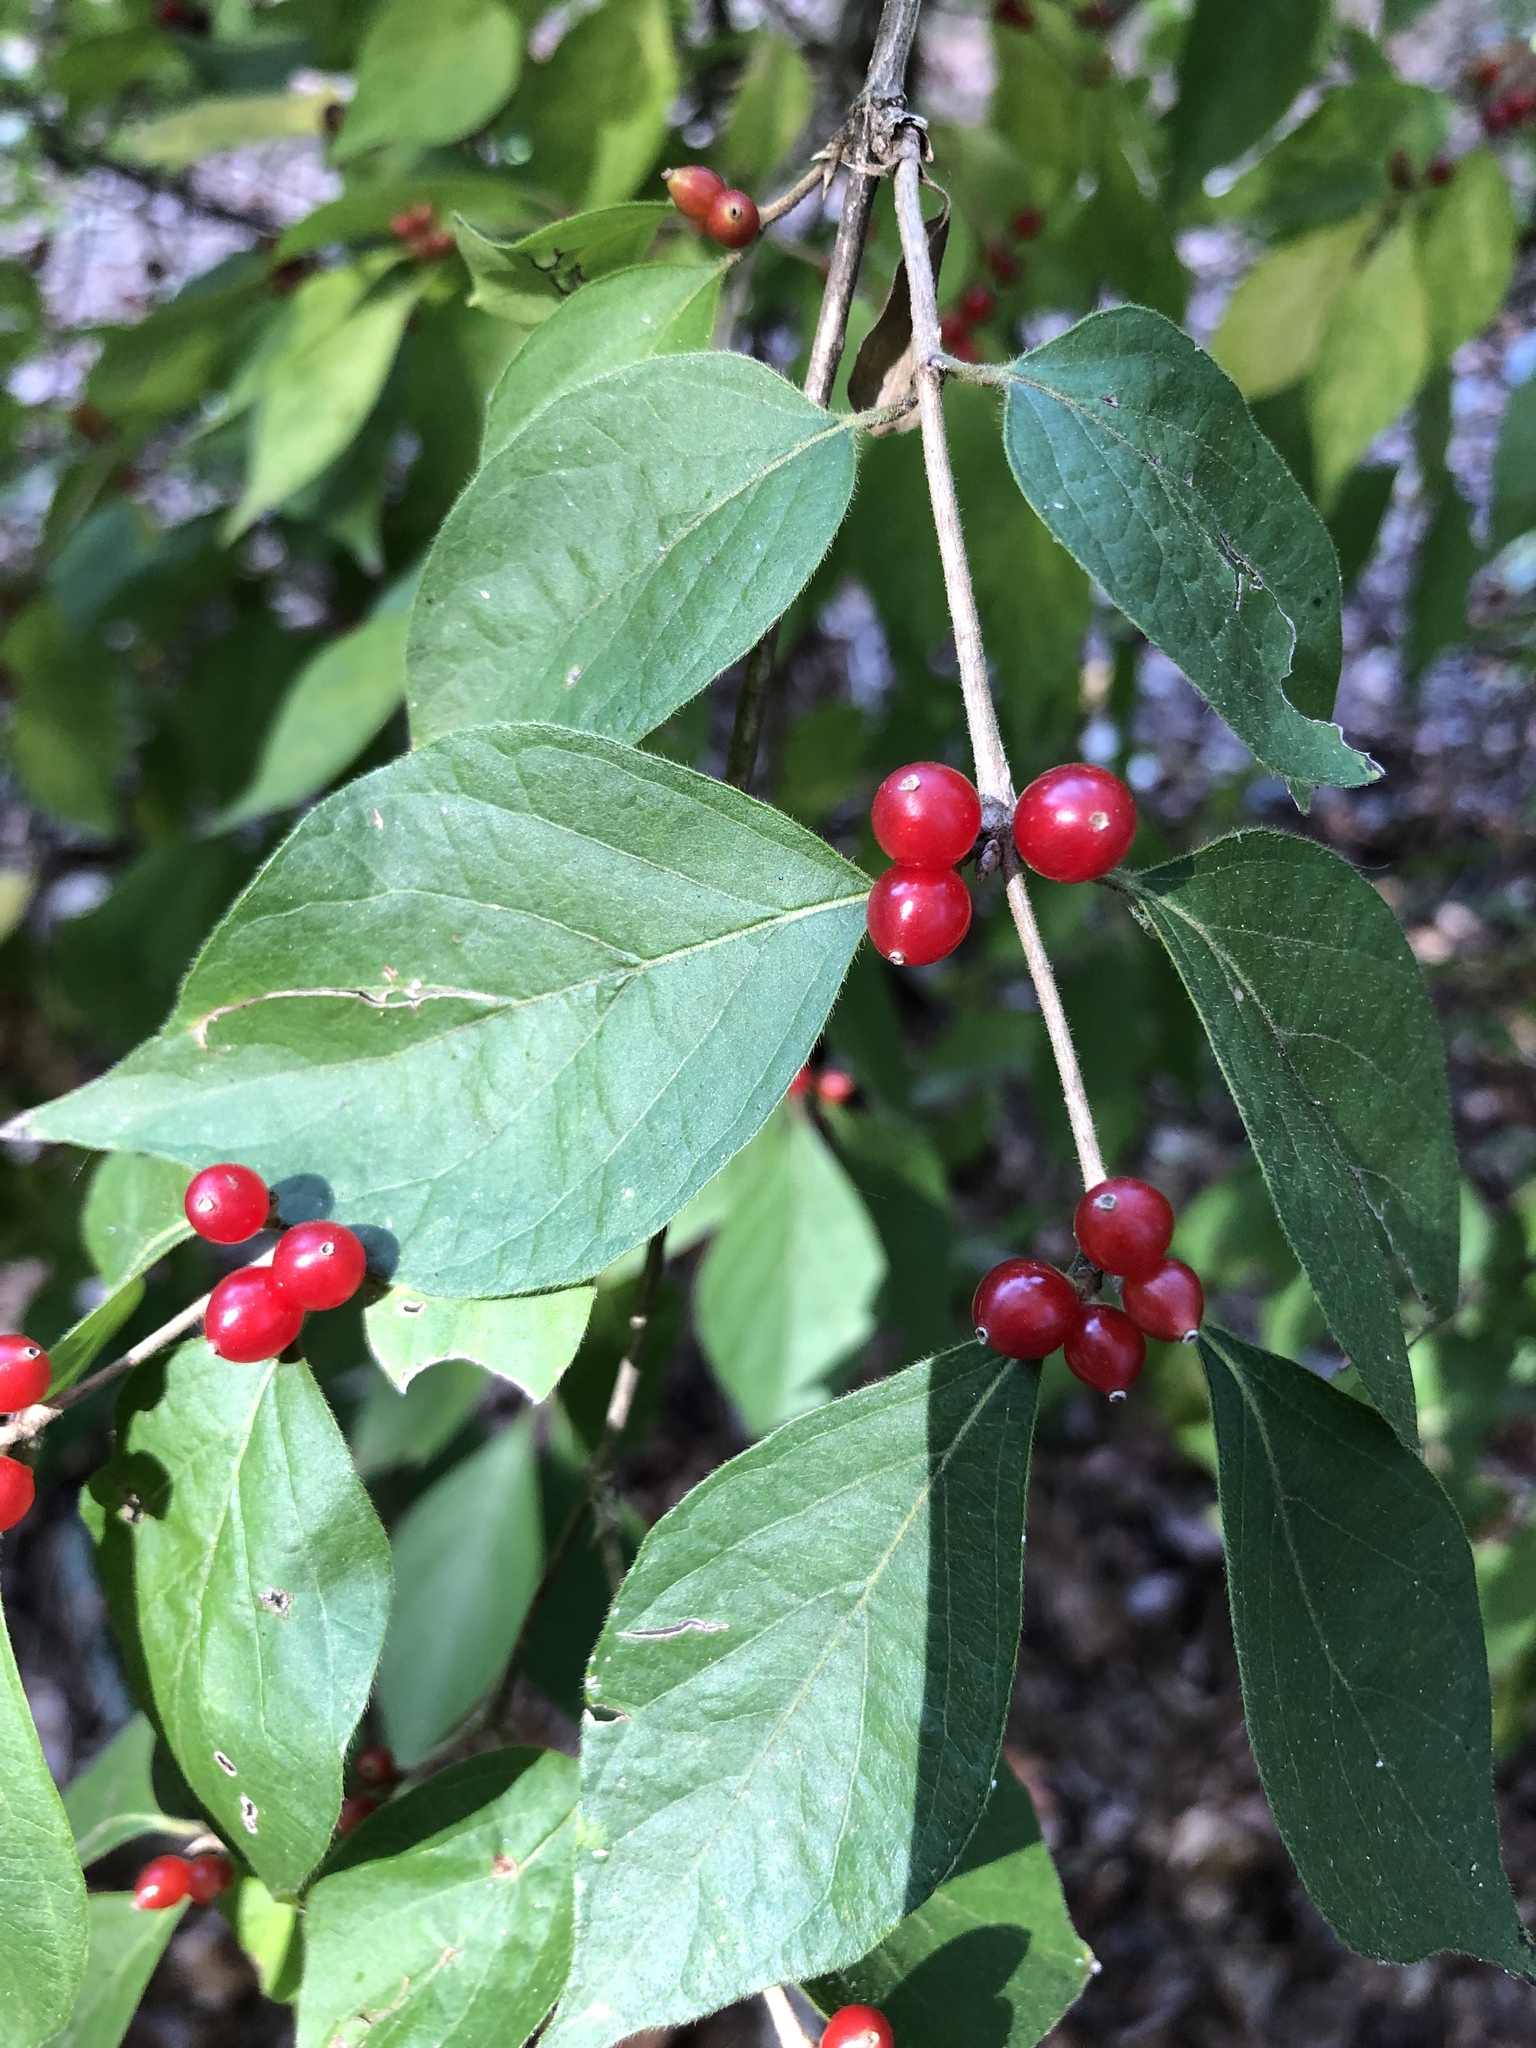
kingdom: Plantae
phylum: Tracheophyta
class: Magnoliopsida
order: Dipsacales
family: Caprifoliaceae
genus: Lonicera
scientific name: Lonicera maackii
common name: Amur honeysuckle
